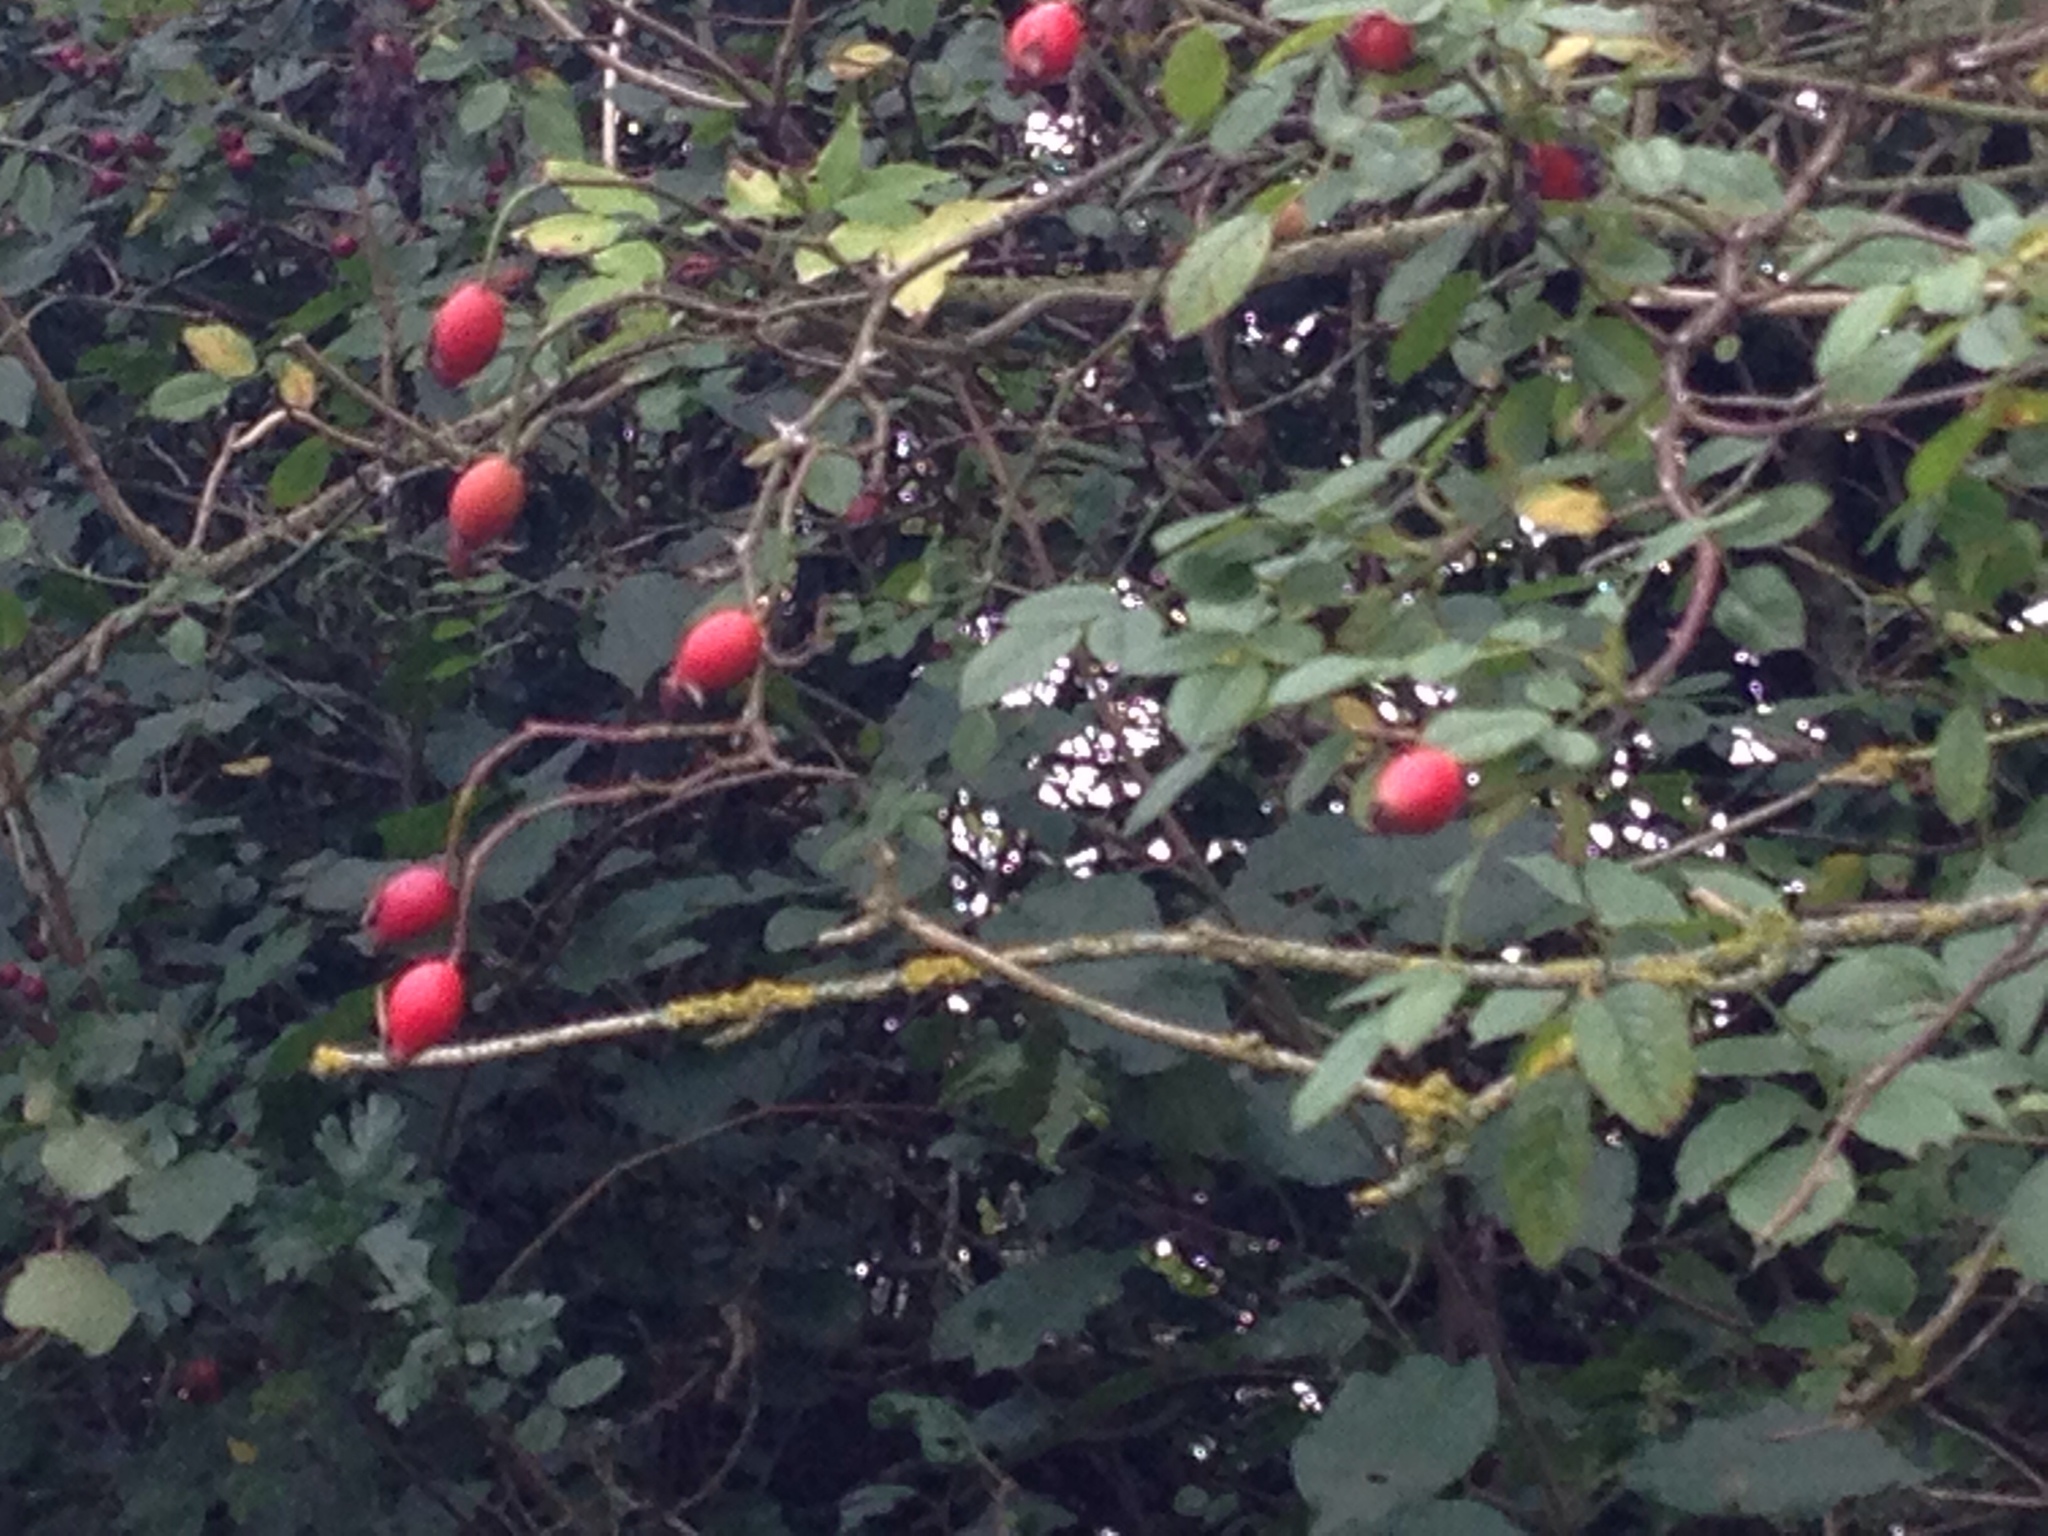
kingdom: Plantae
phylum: Tracheophyta
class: Magnoliopsida
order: Rosales
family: Rosaceae
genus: Rosa
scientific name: Rosa canina
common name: Dog rose
